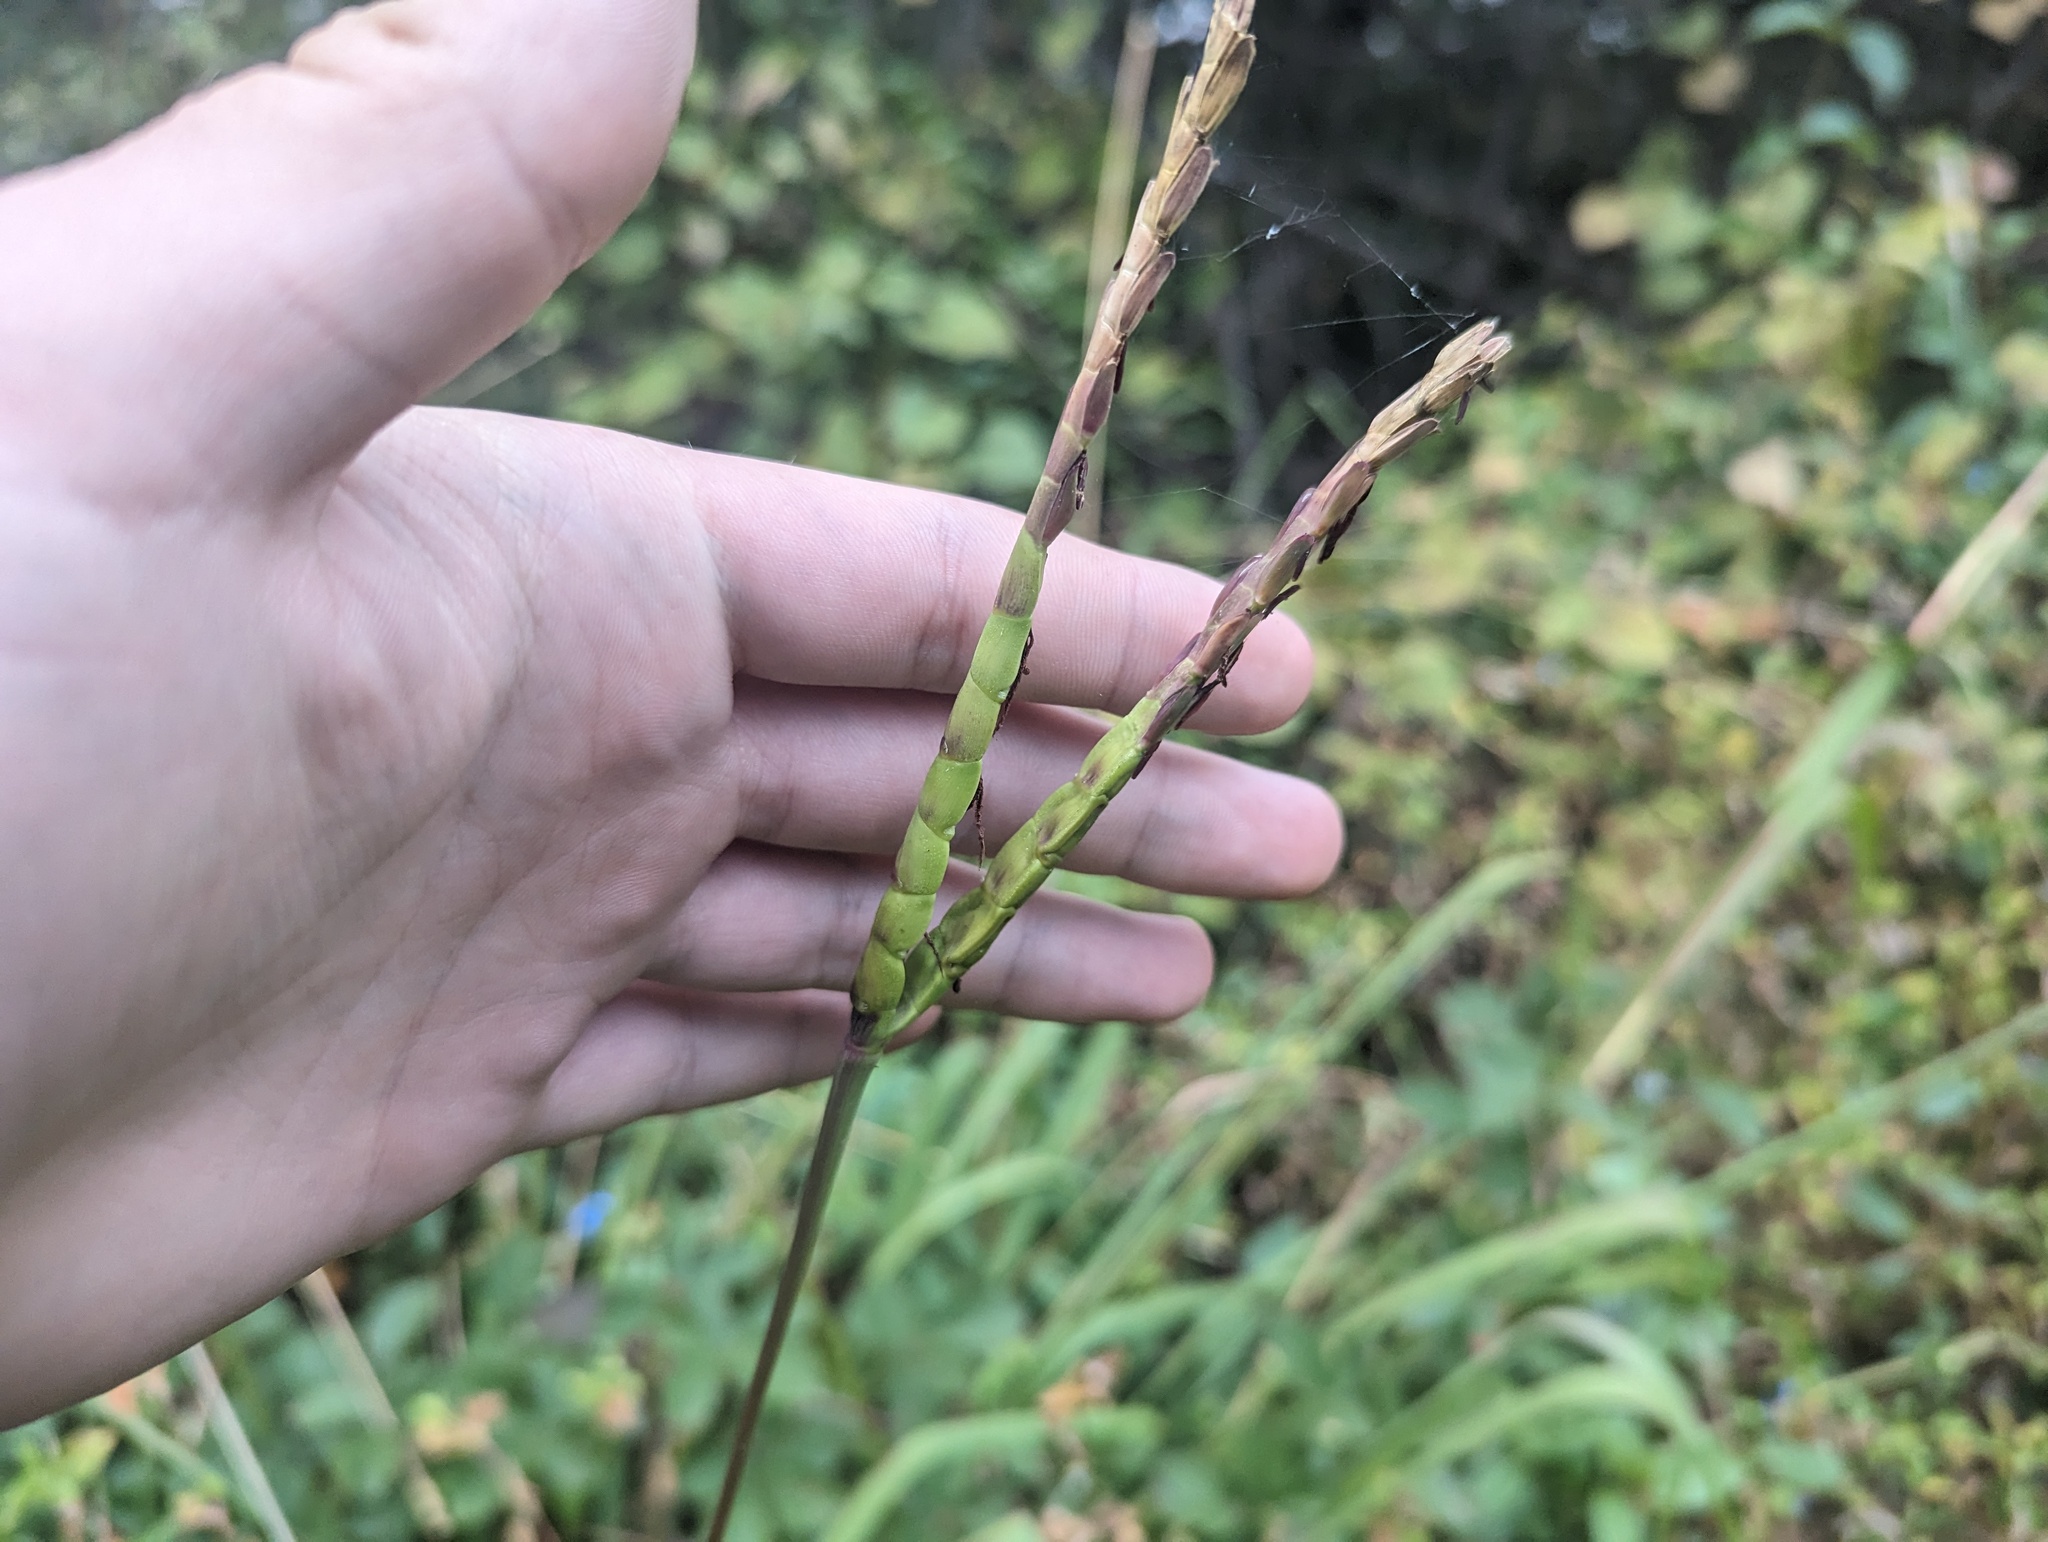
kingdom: Plantae
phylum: Tracheophyta
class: Liliopsida
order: Poales
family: Poaceae
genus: Tripsacum
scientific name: Tripsacum dactyloides
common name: Buffalo-grass
